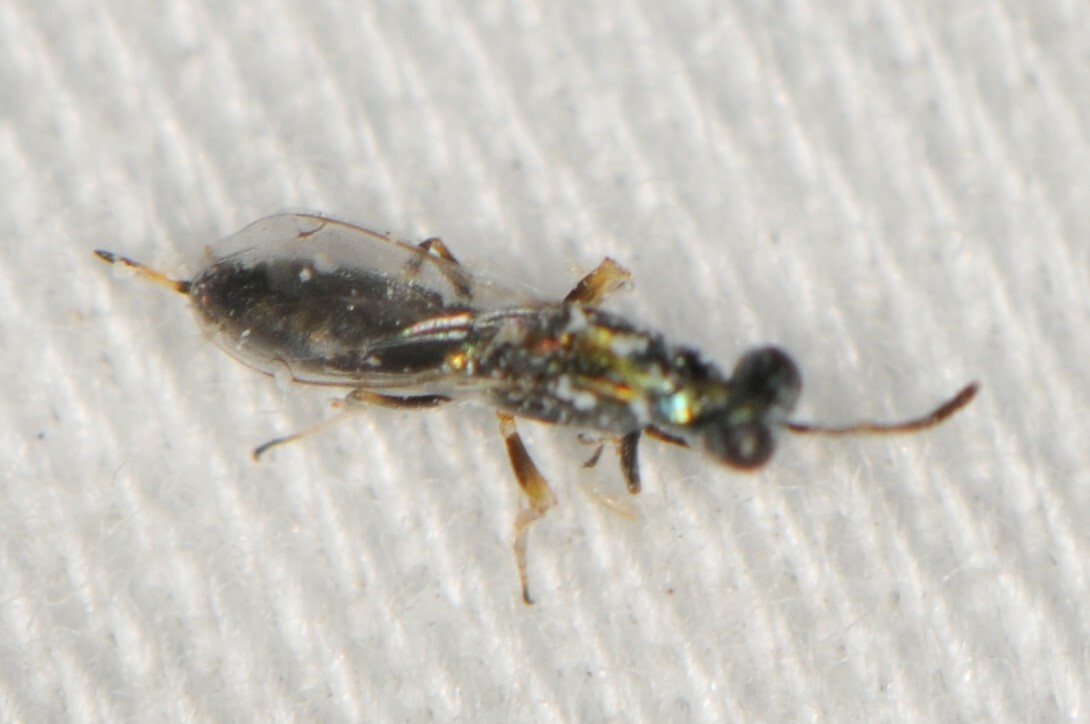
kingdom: Animalia
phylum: Arthropoda
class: Insecta
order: Hymenoptera
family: Eupelmidae
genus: Eupelmus
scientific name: Eupelmus
